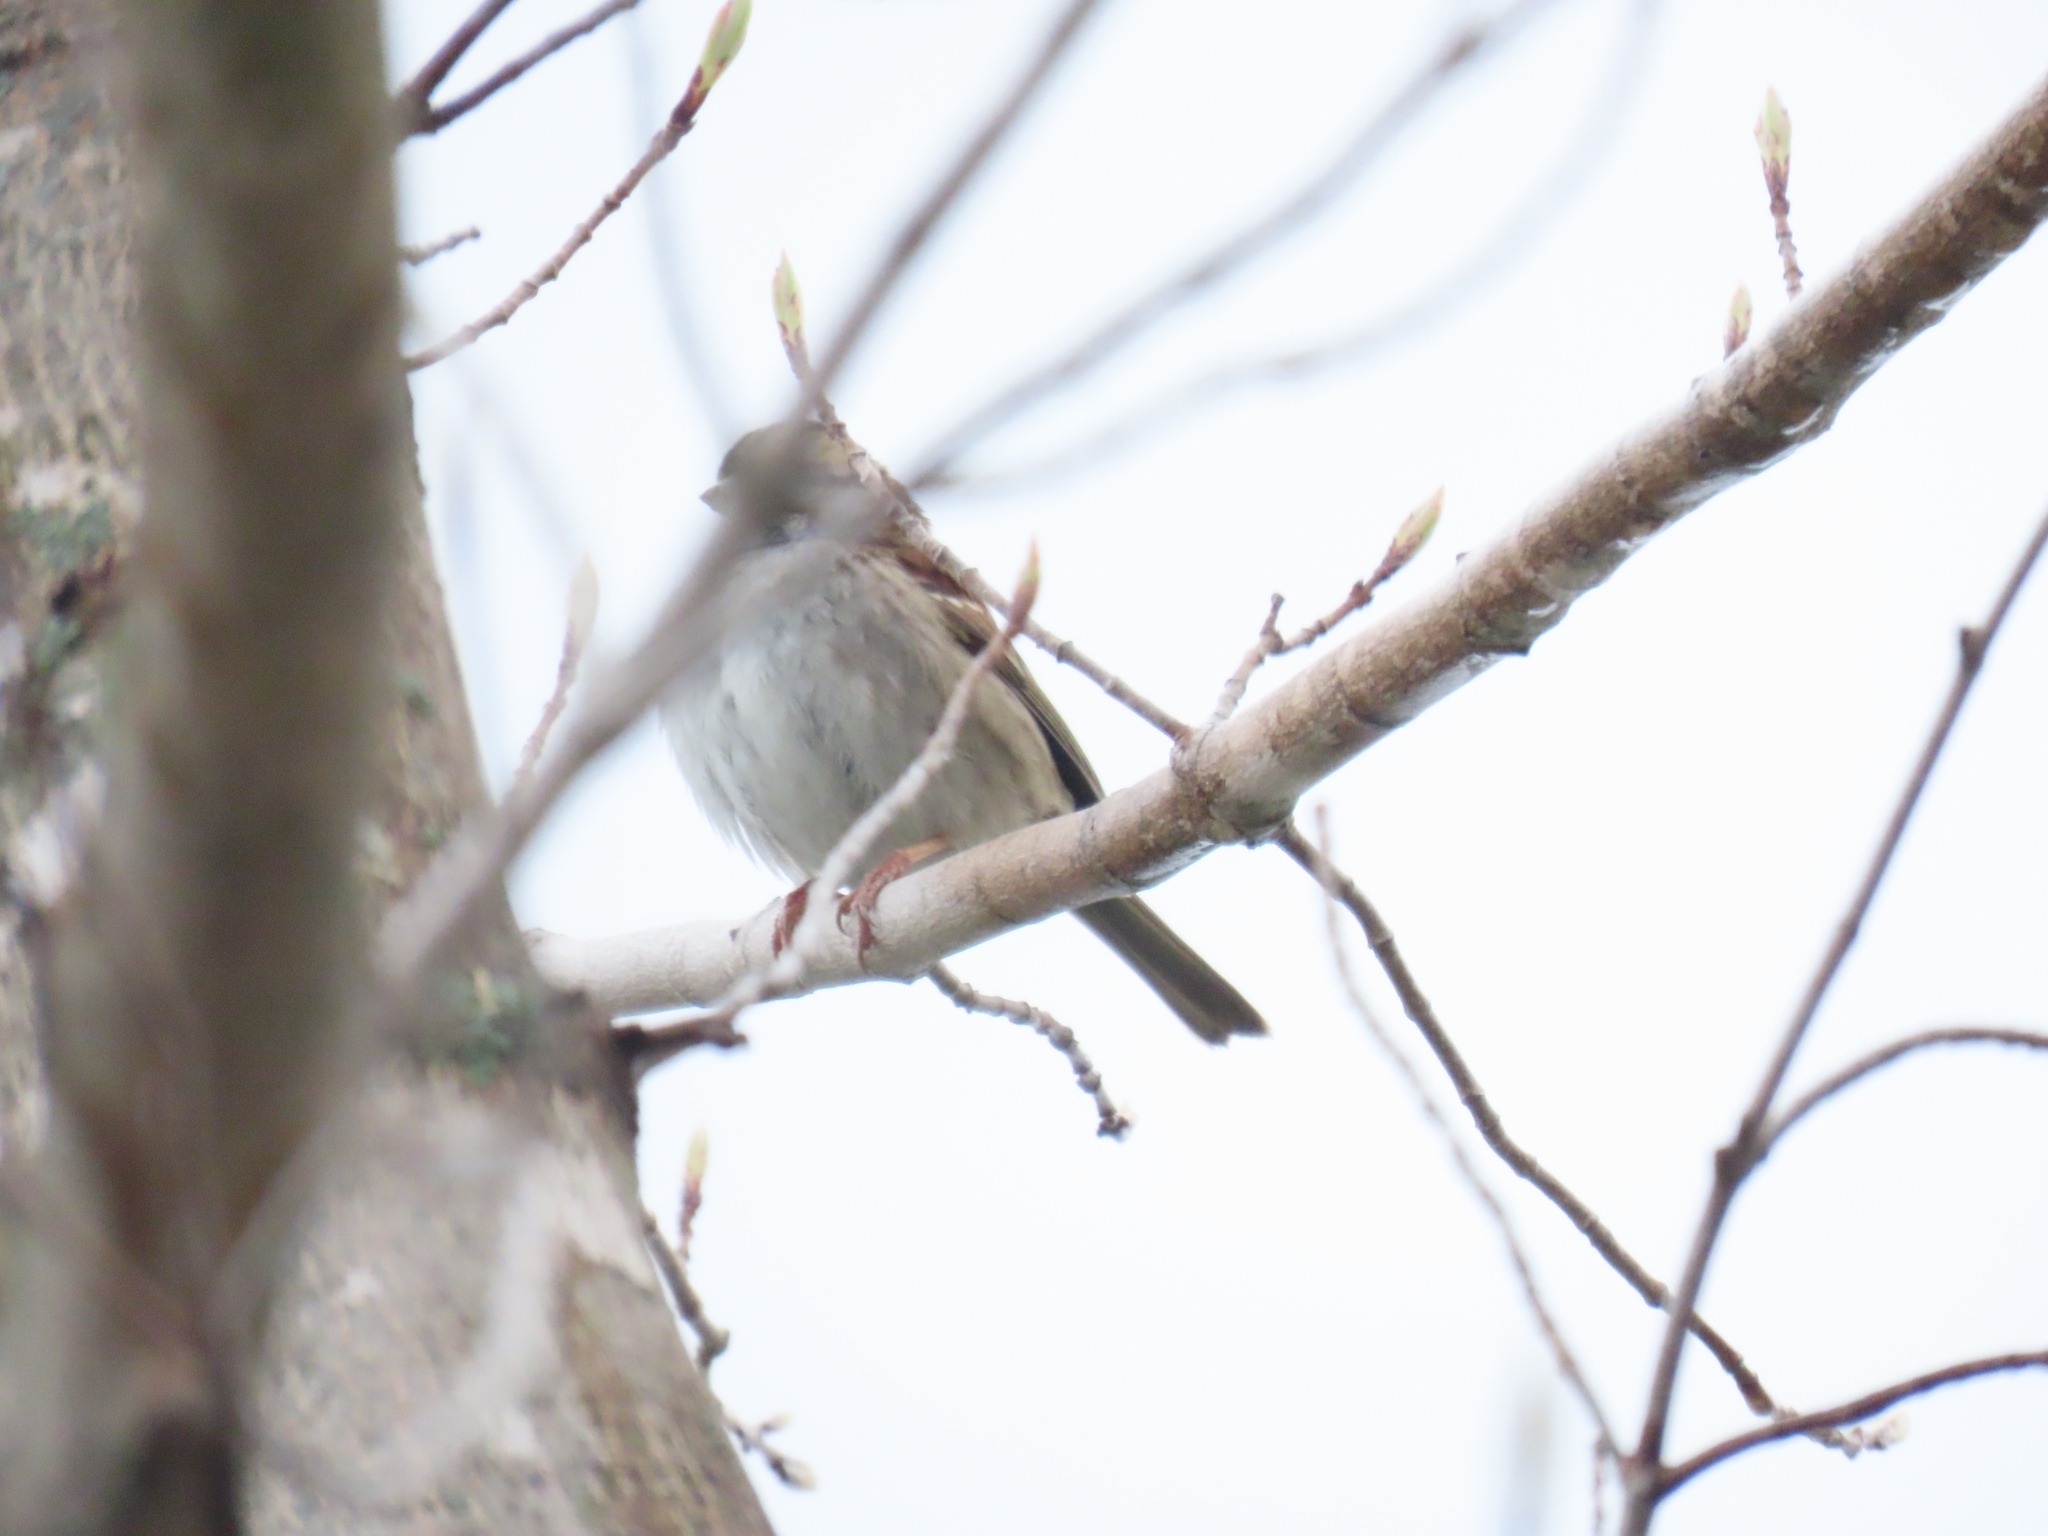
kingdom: Animalia
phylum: Chordata
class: Aves
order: Passeriformes
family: Passerellidae
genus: Zonotrichia
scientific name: Zonotrichia albicollis
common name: White-throated sparrow
